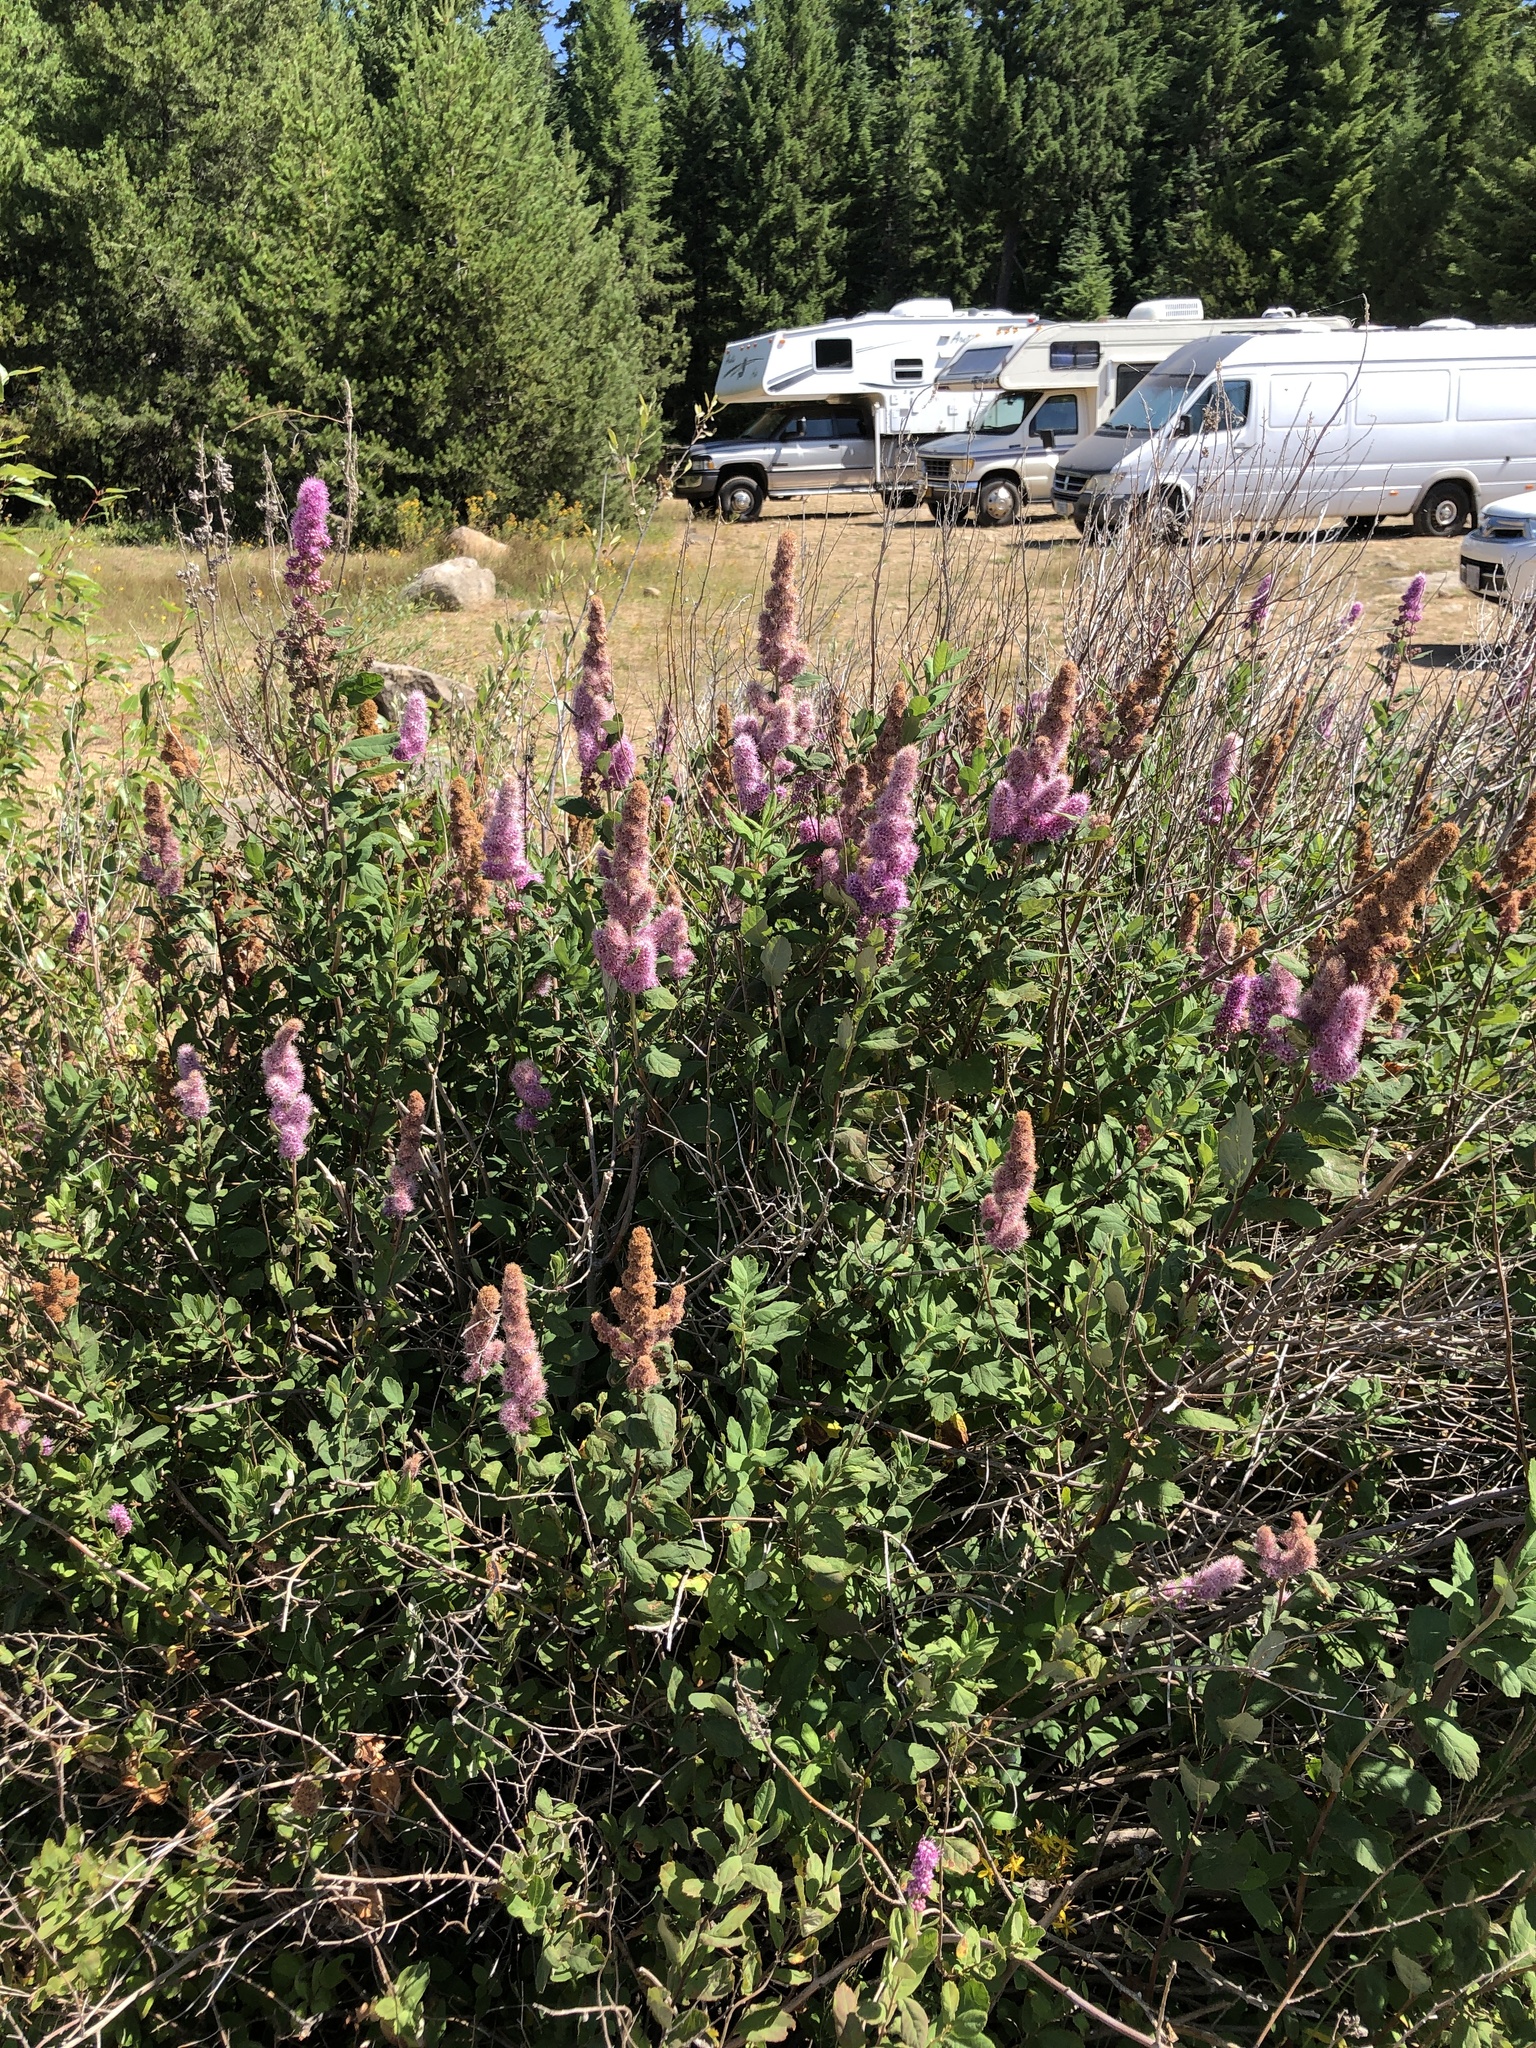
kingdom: Plantae
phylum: Tracheophyta
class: Magnoliopsida
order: Rosales
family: Rosaceae
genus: Spiraea
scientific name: Spiraea douglasii
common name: Steeplebush
